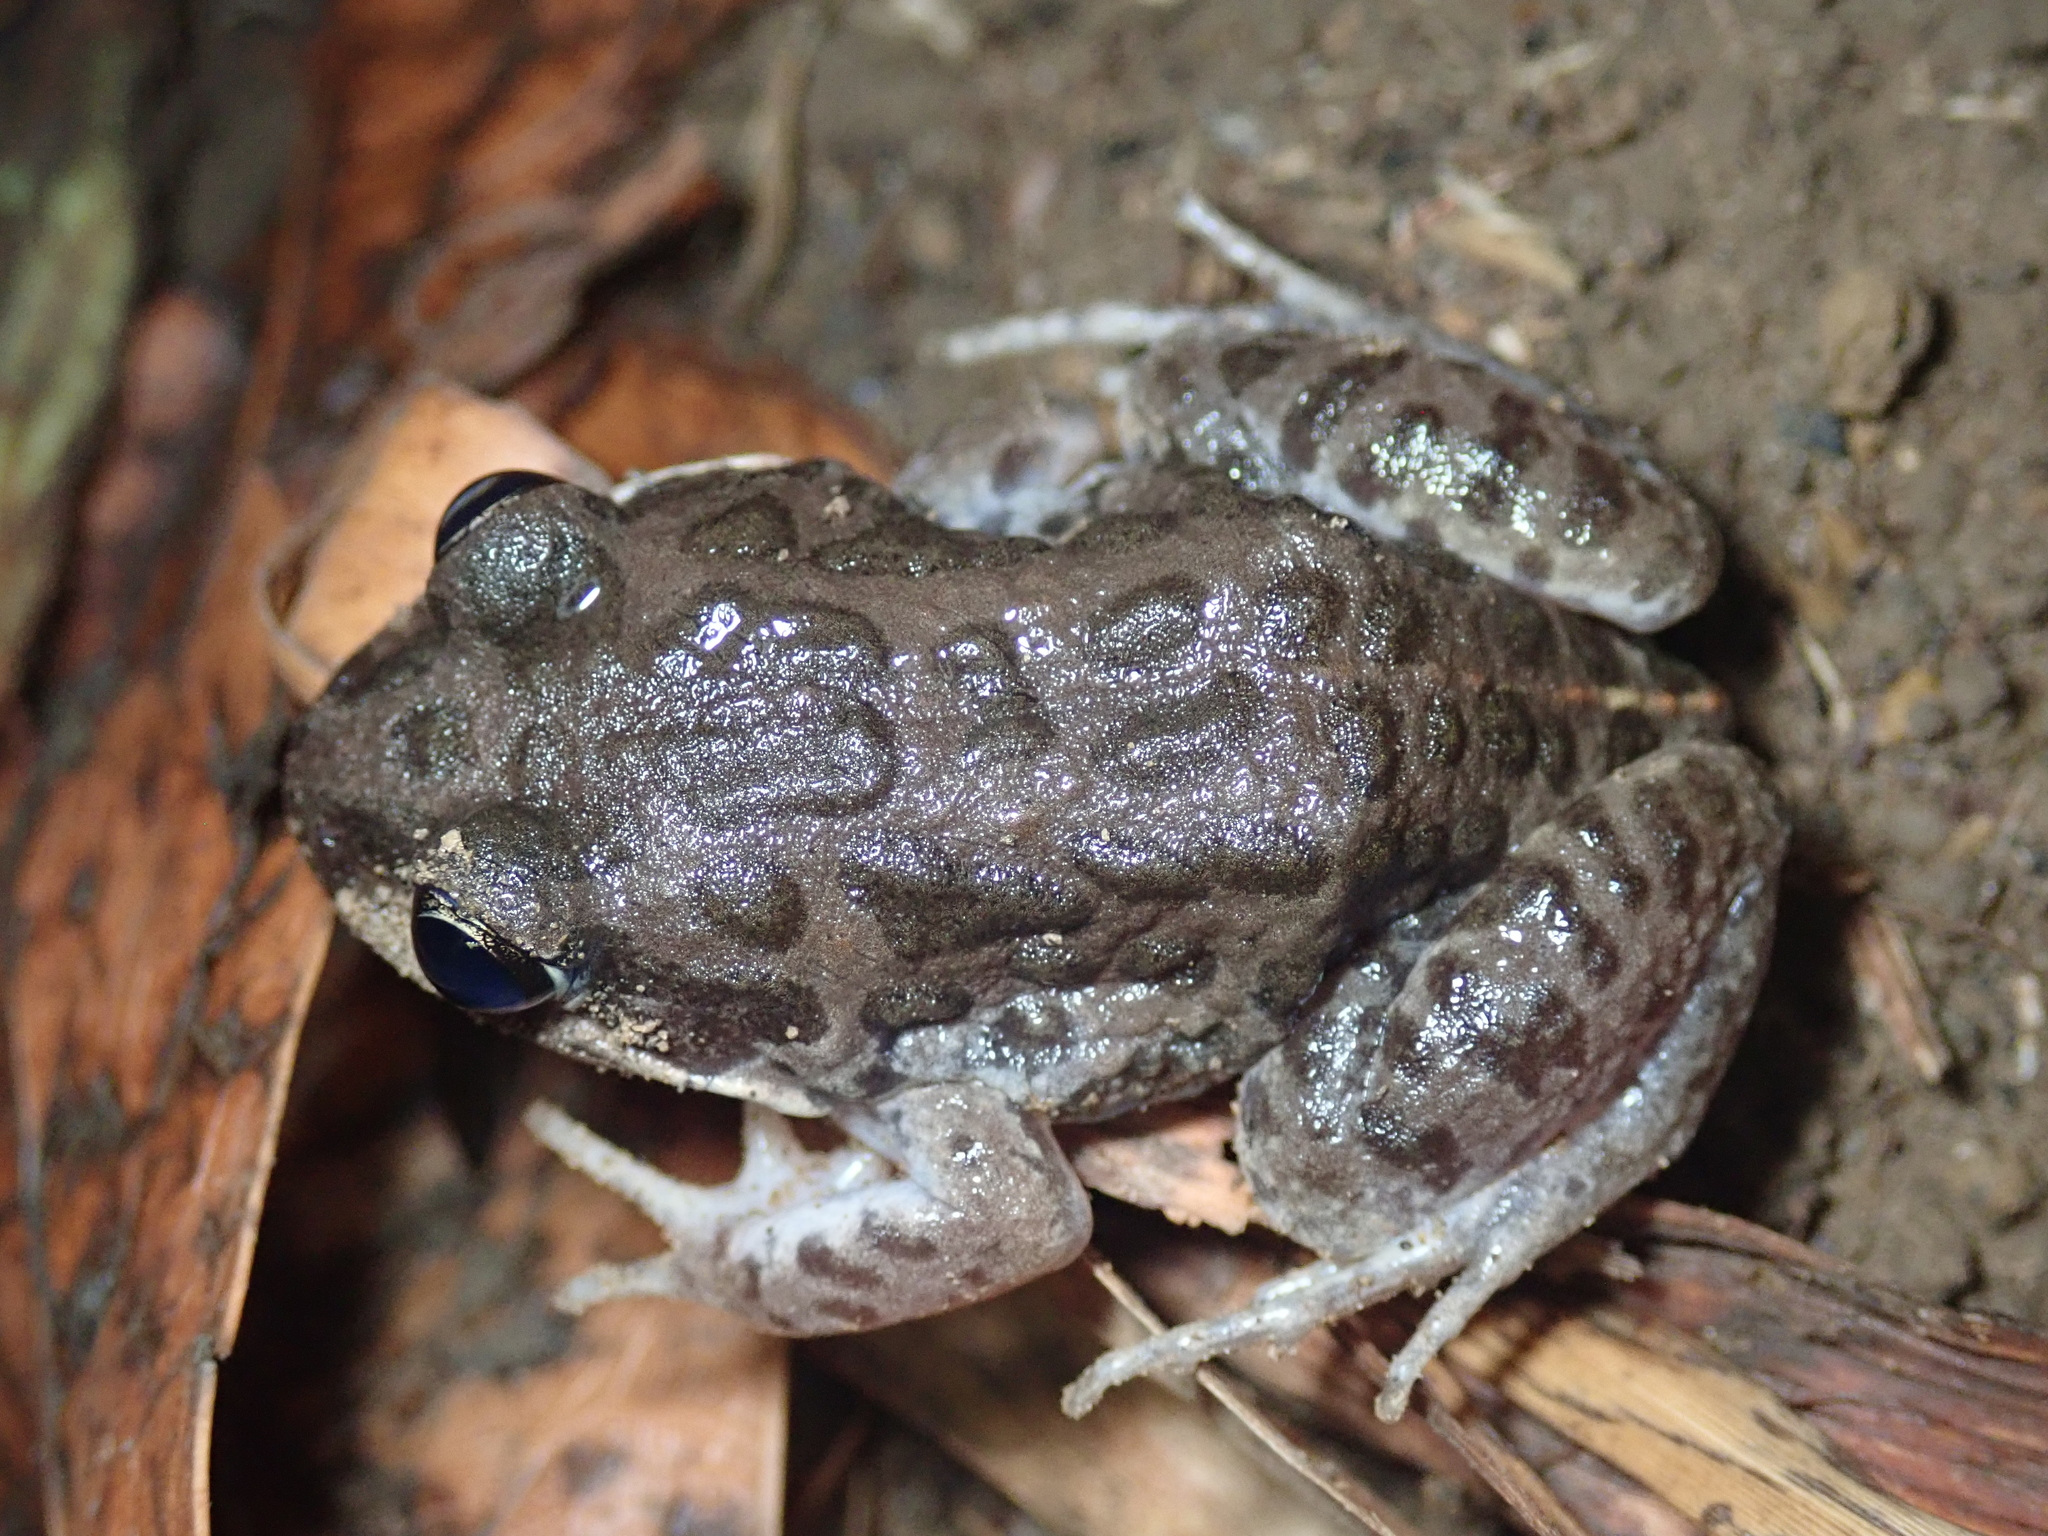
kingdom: Animalia
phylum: Chordata
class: Amphibia
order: Anura
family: Limnodynastidae
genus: Limnodynastes
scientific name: Limnodynastes convexiusculus
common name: Marbled frog
